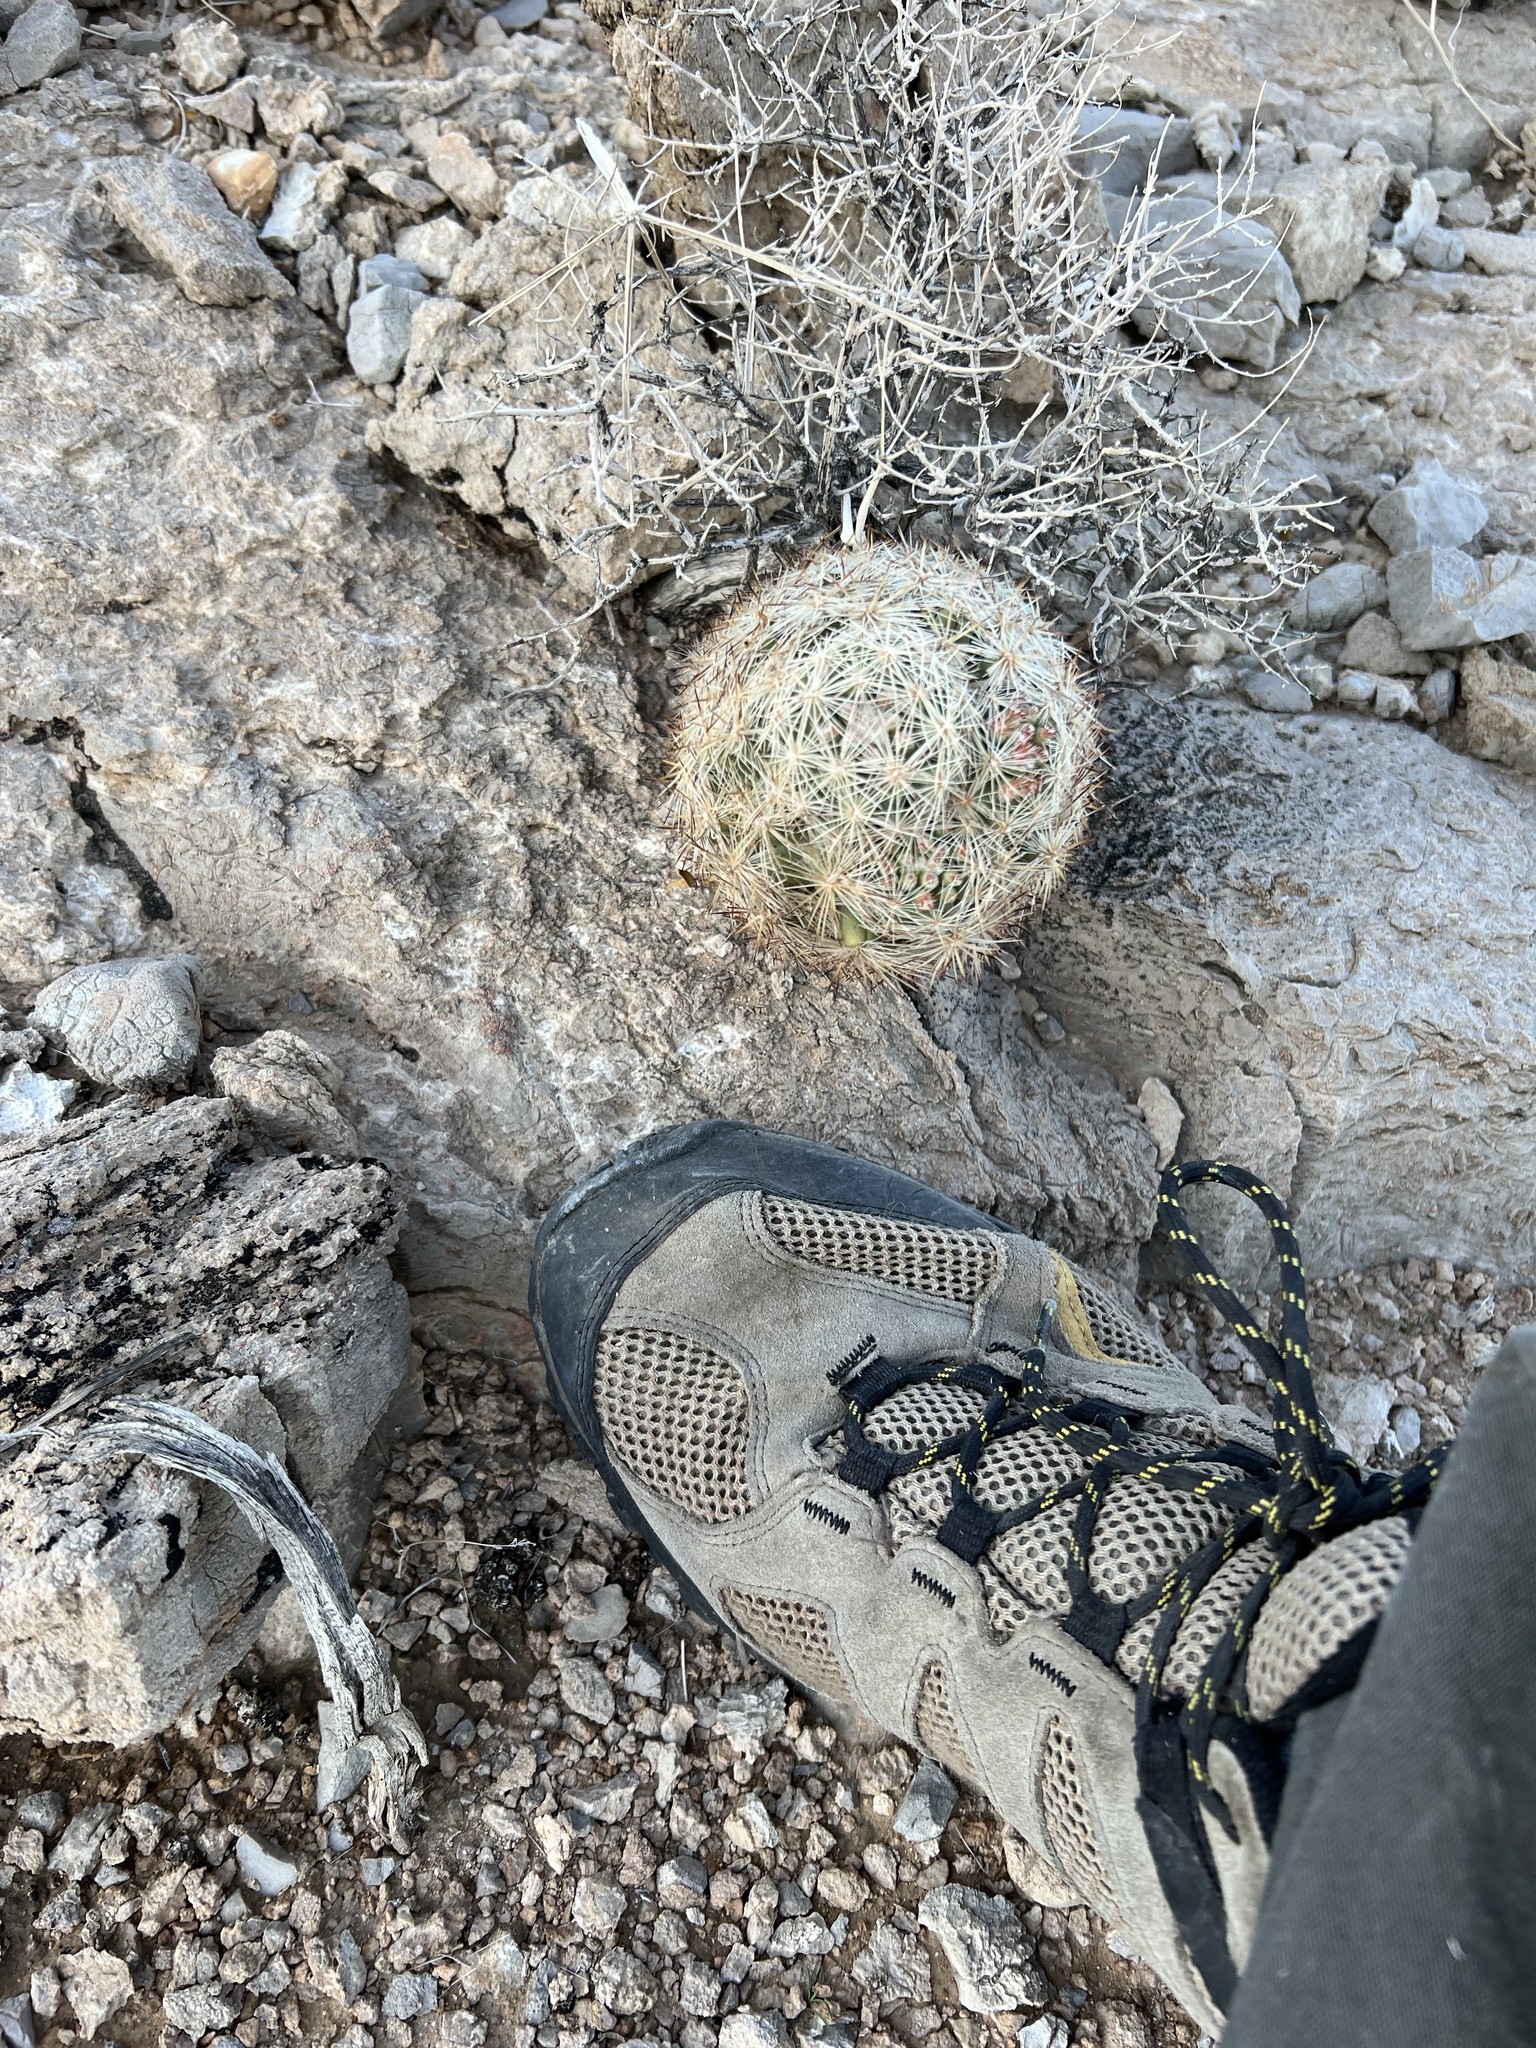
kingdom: Plantae
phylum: Tracheophyta
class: Magnoliopsida
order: Caryophyllales
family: Cactaceae
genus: Pelecyphora
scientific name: Pelecyphora dasyacantha
